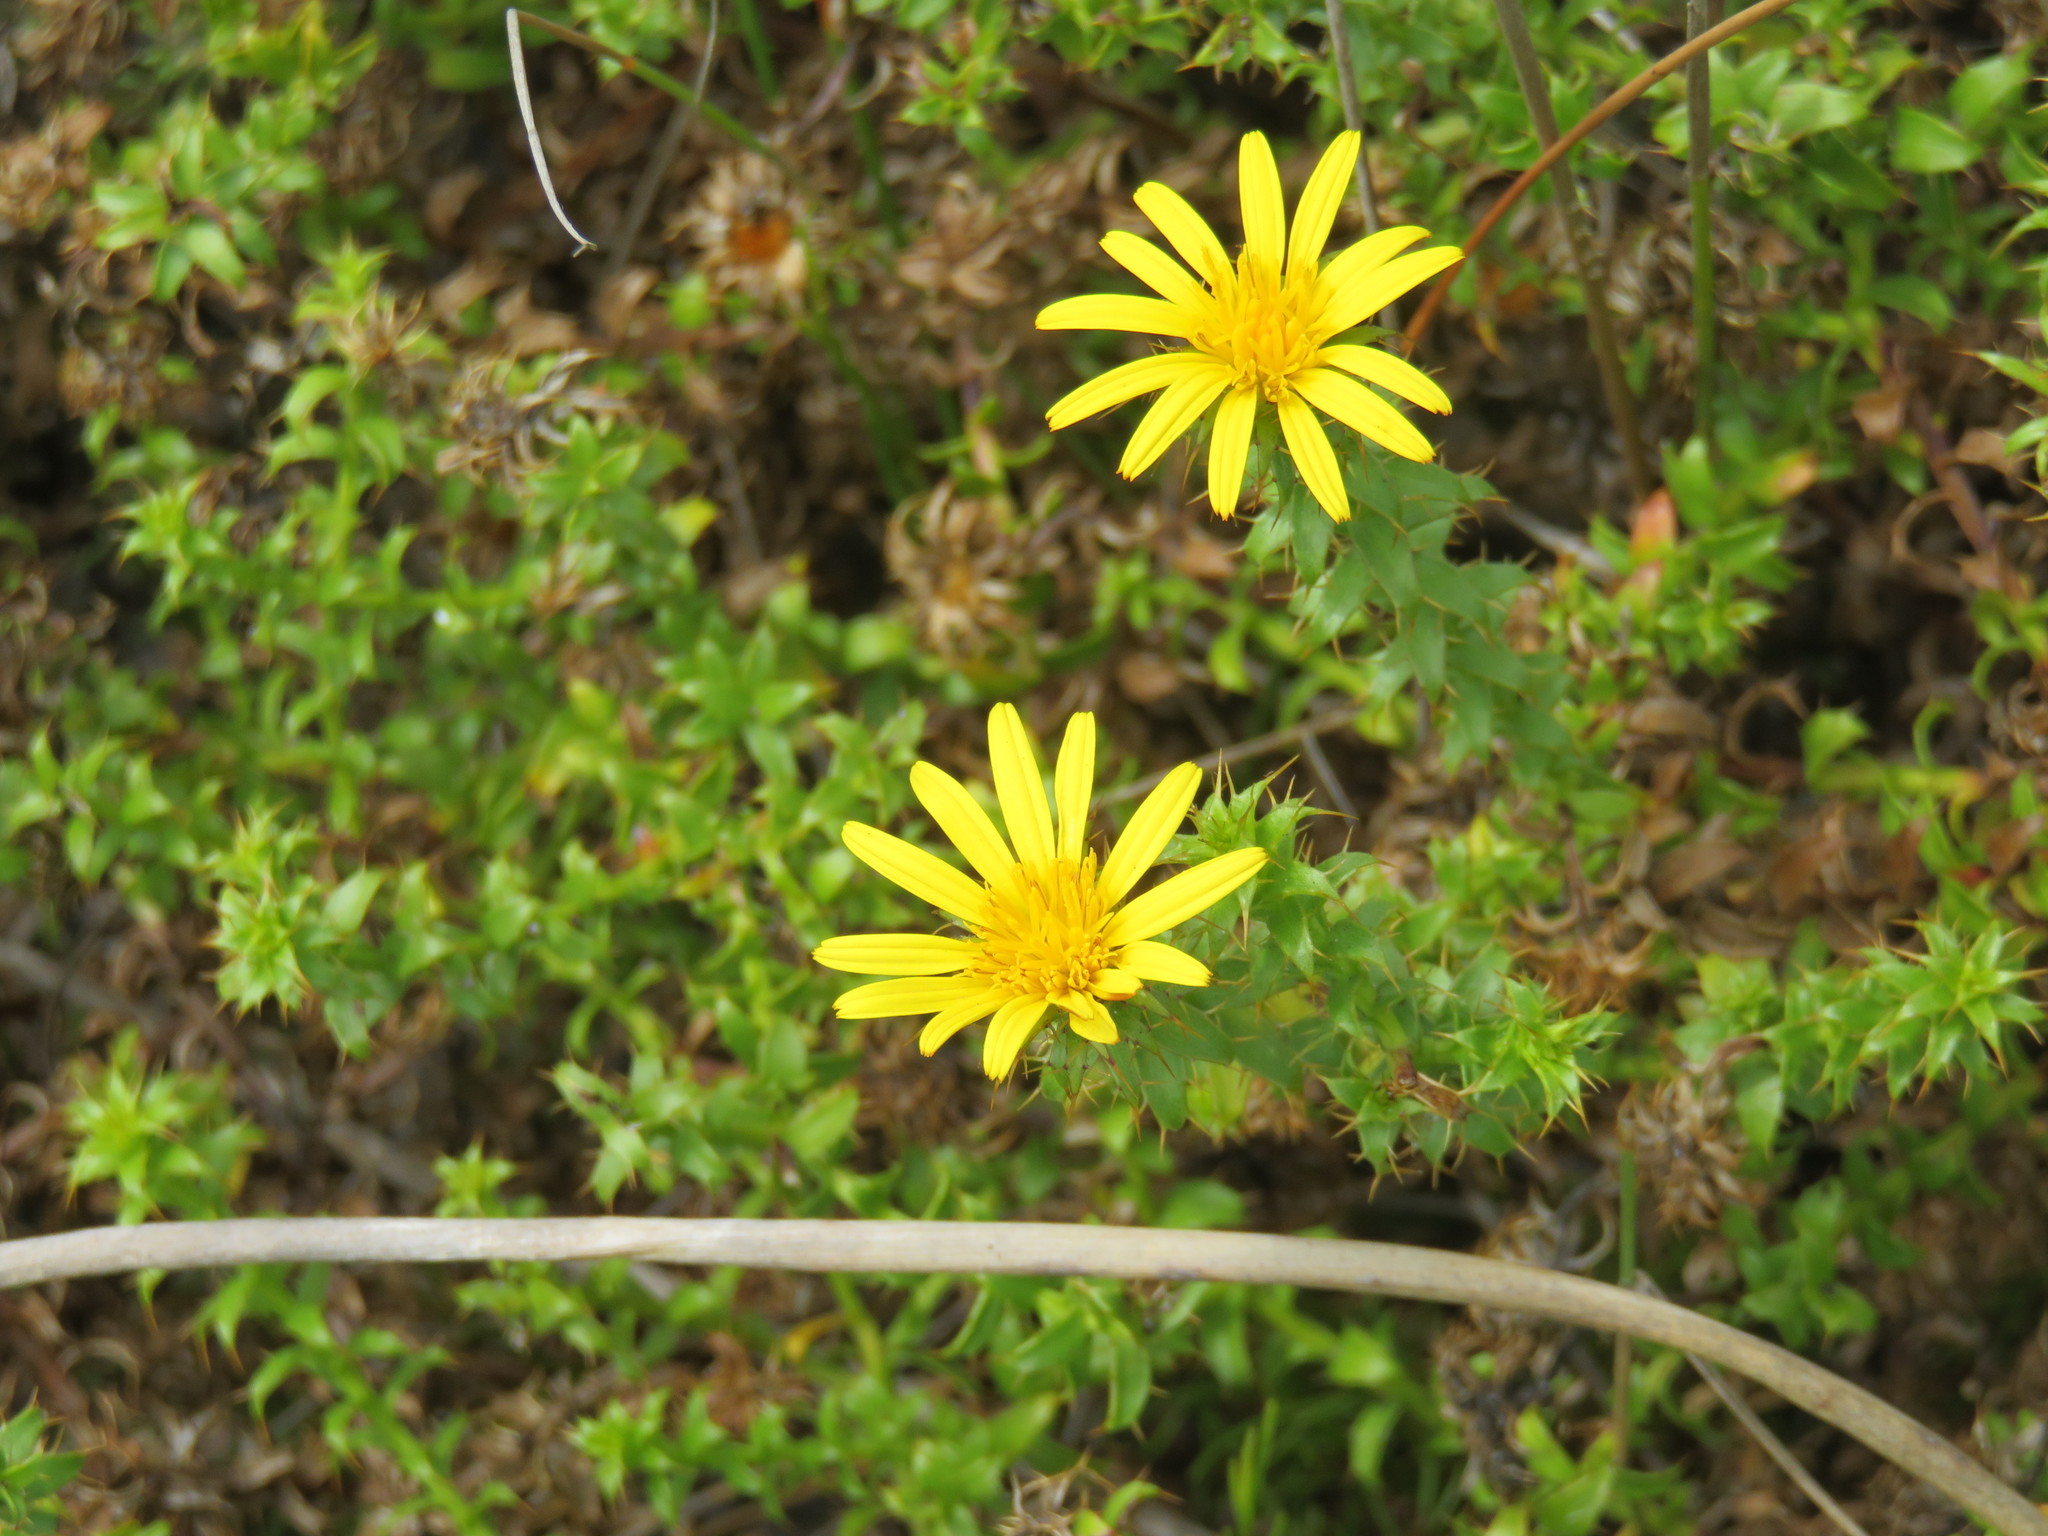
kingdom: Plantae
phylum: Tracheophyta
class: Magnoliopsida
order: Asterales
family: Asteraceae
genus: Cullumia
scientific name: Cullumia setosa
